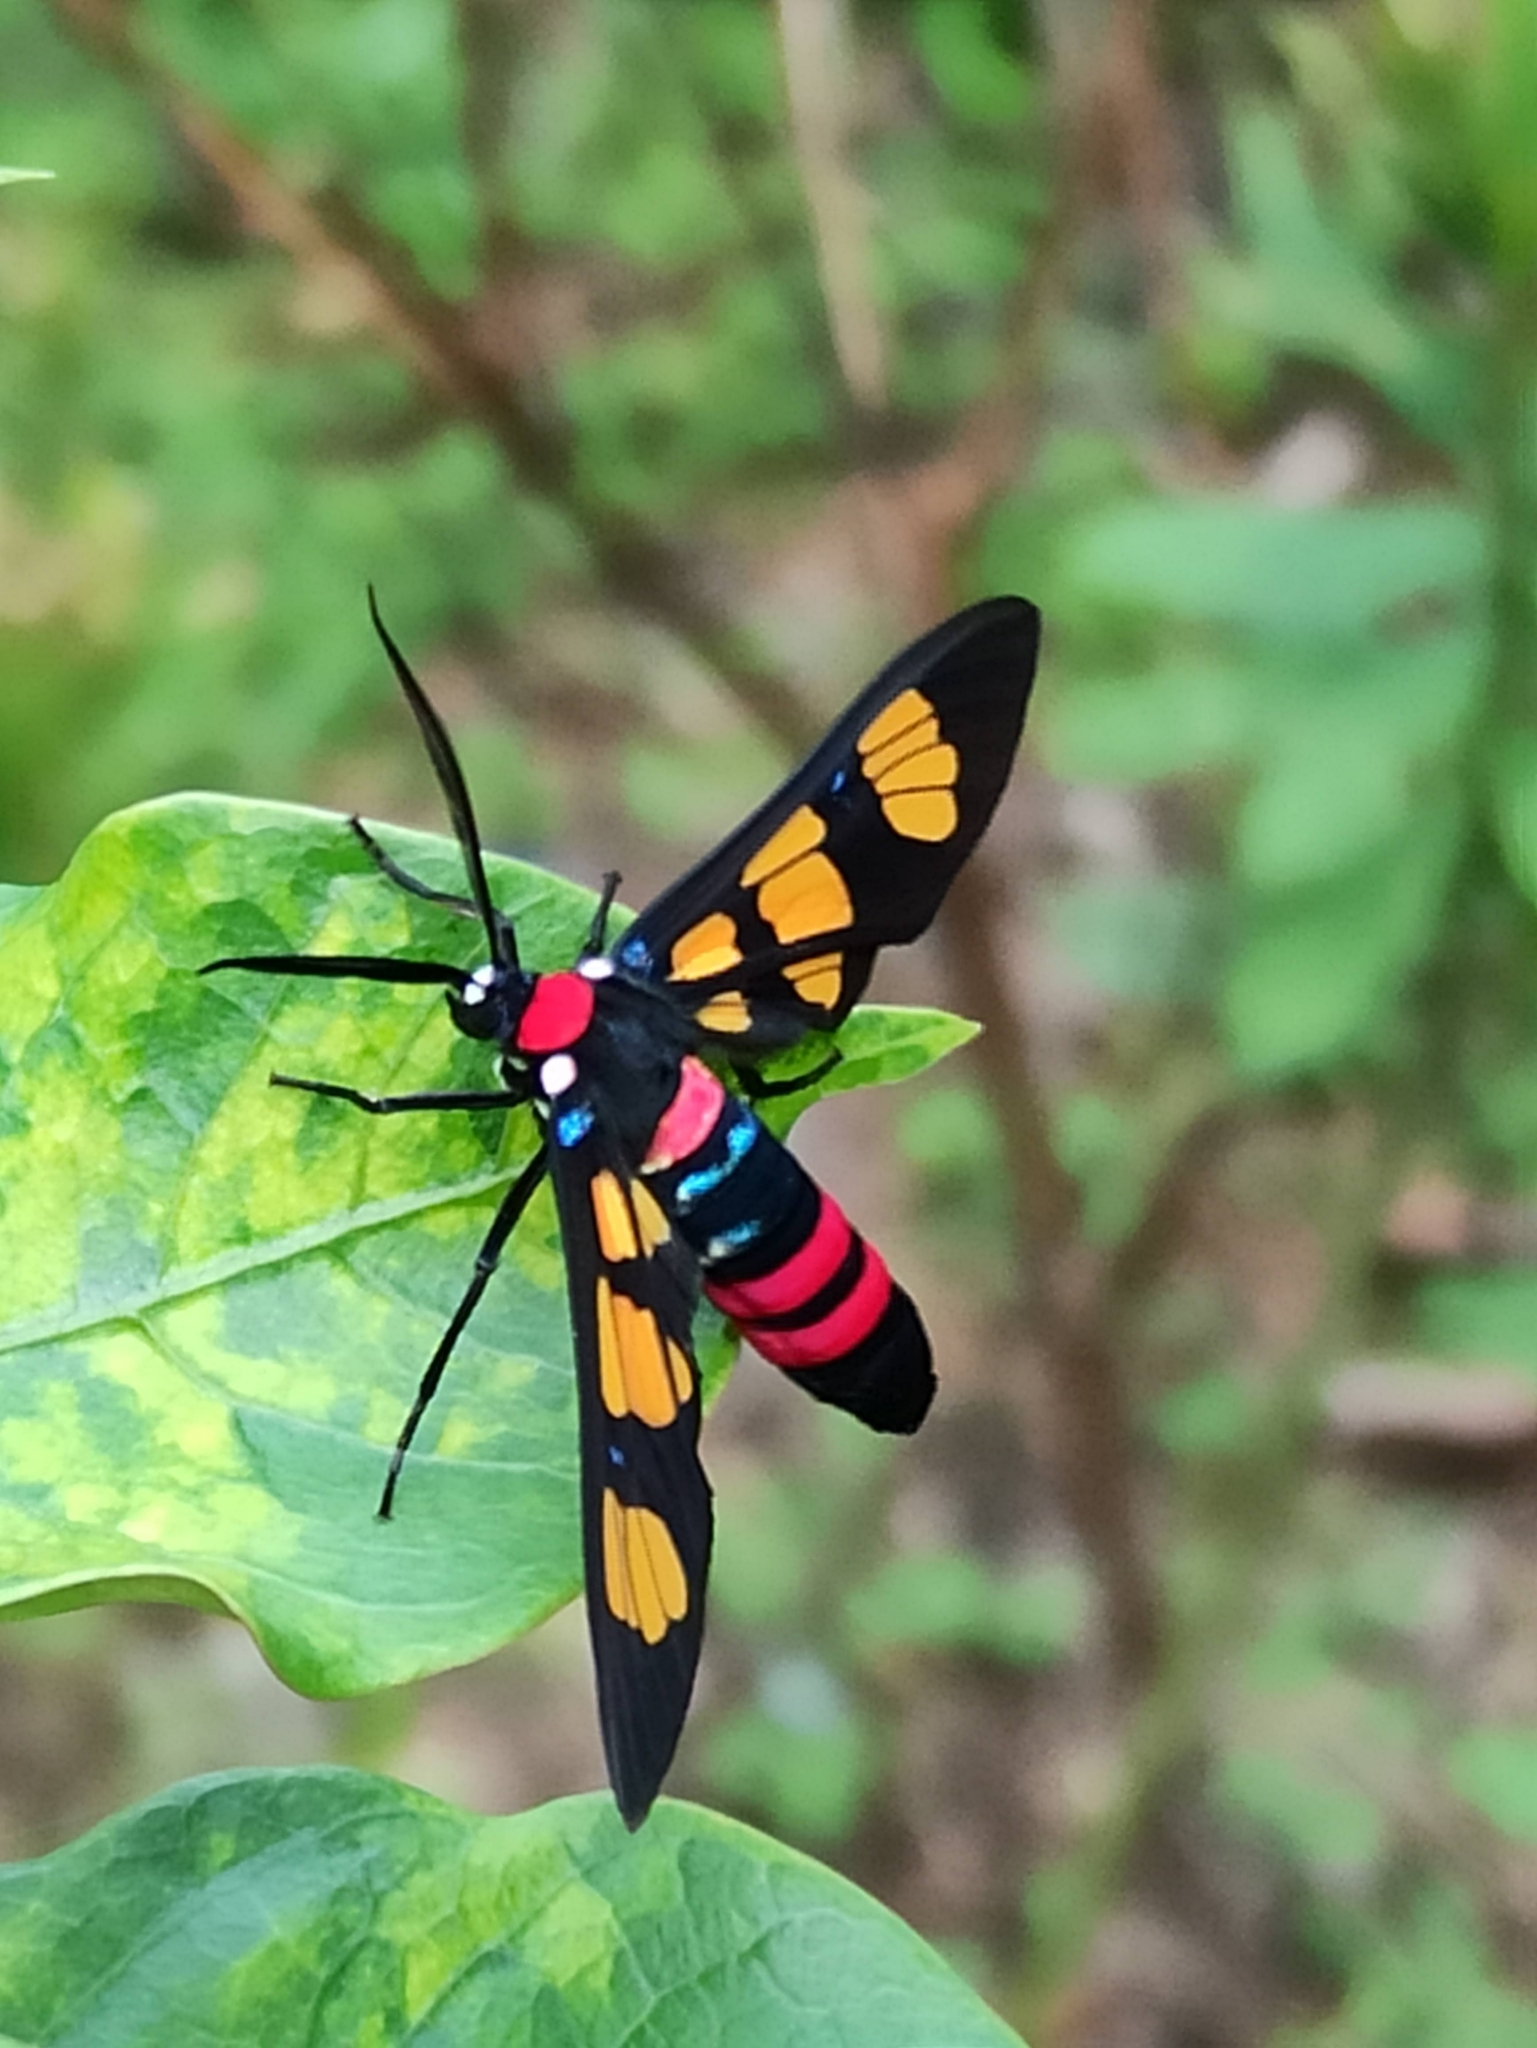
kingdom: Animalia
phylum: Arthropoda
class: Insecta
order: Lepidoptera
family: Erebidae
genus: Euchromia
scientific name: Euchromia polymena
